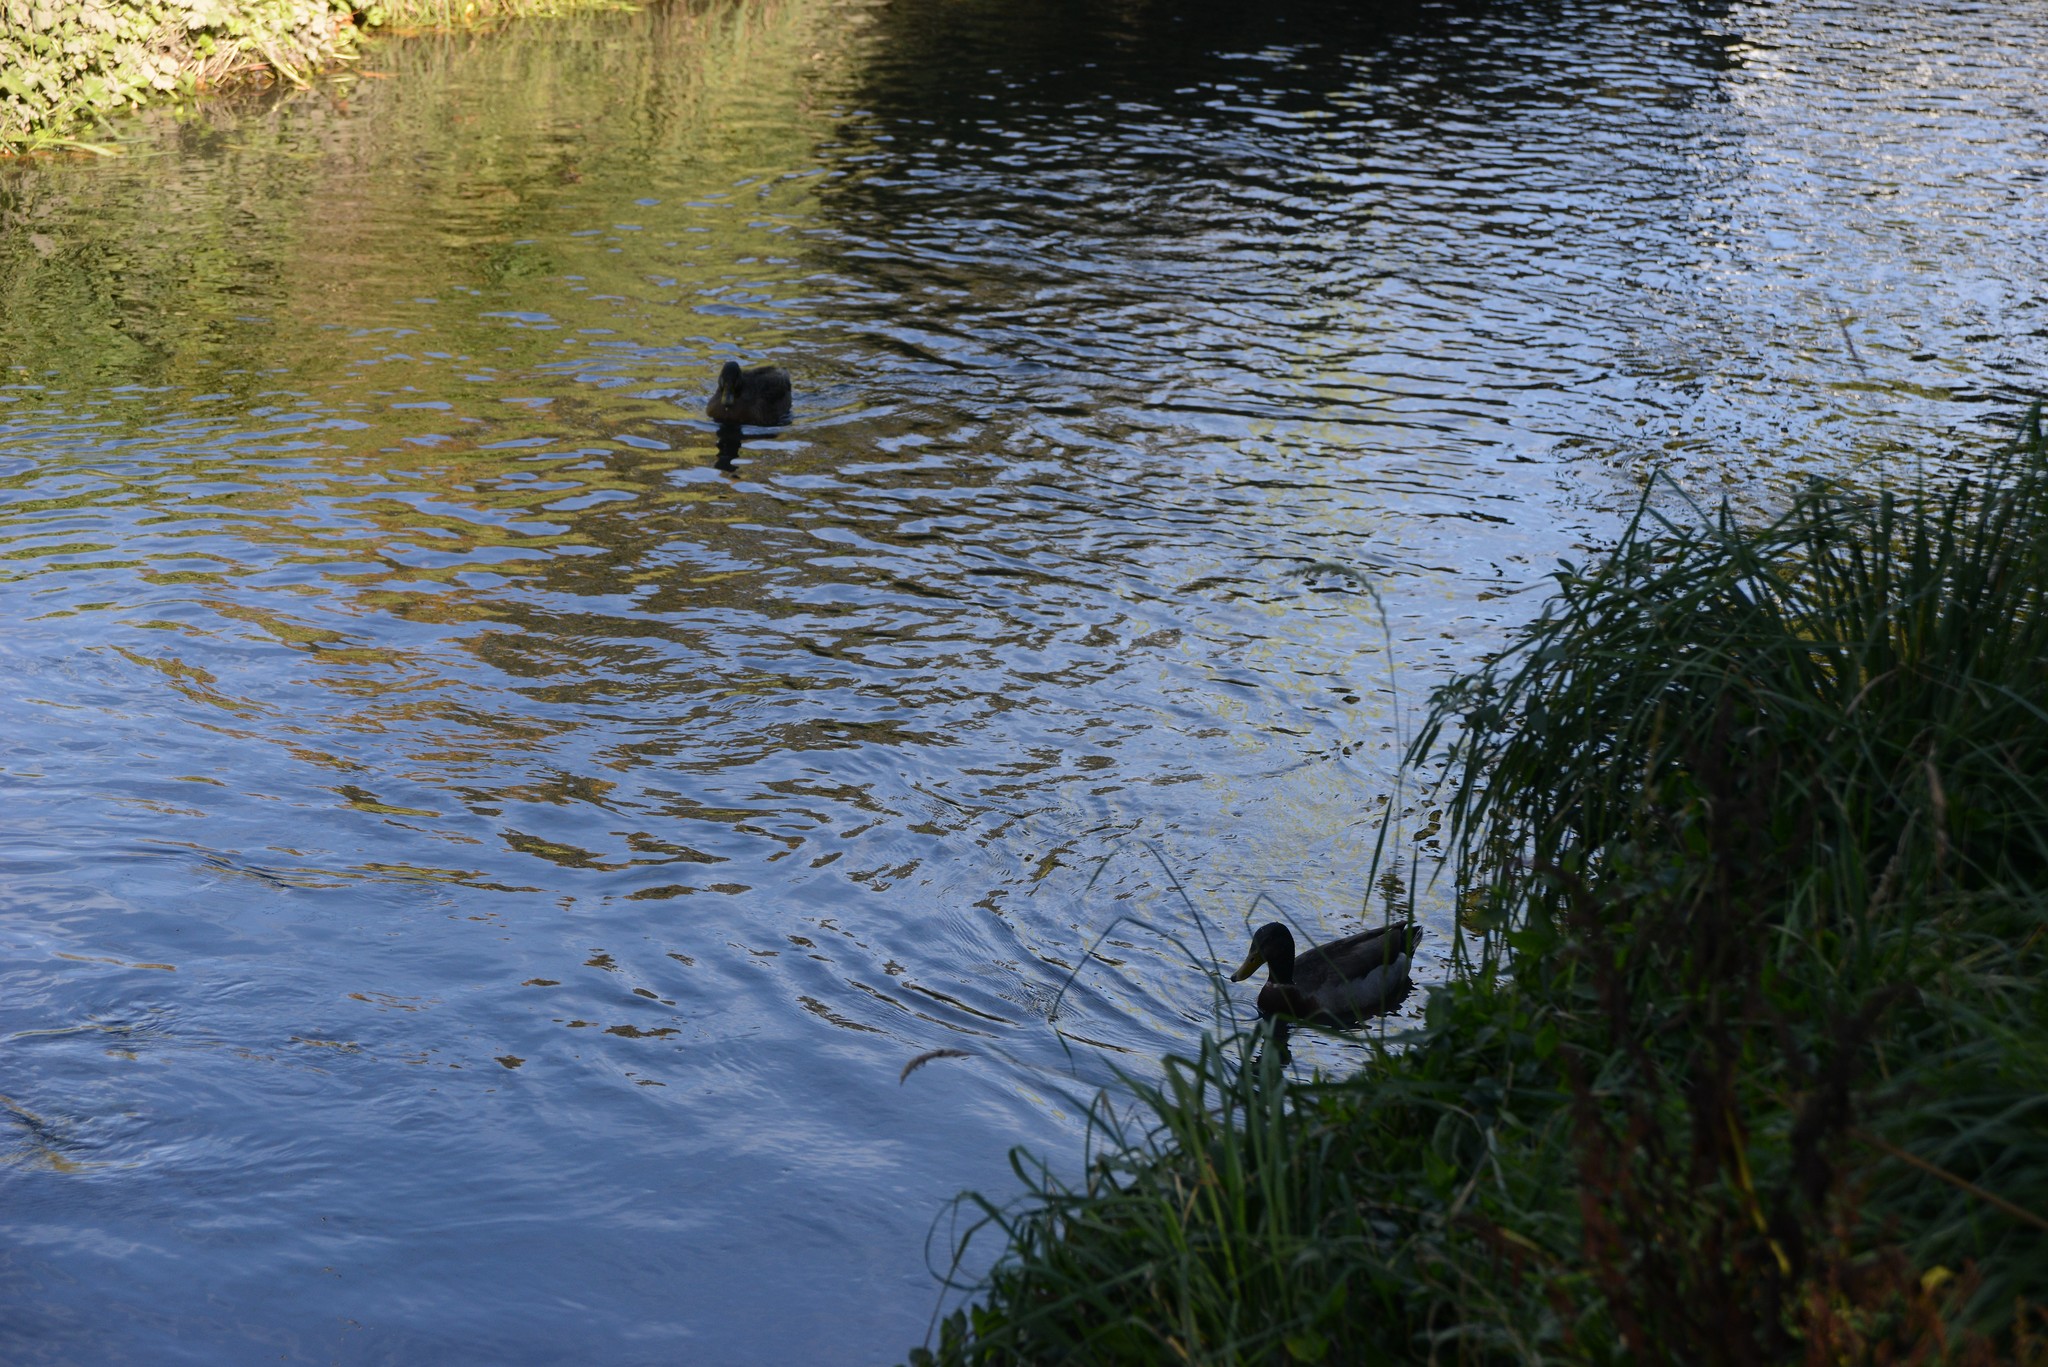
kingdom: Animalia
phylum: Chordata
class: Aves
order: Anseriformes
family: Anatidae
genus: Anas
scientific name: Anas platyrhynchos
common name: Mallard
